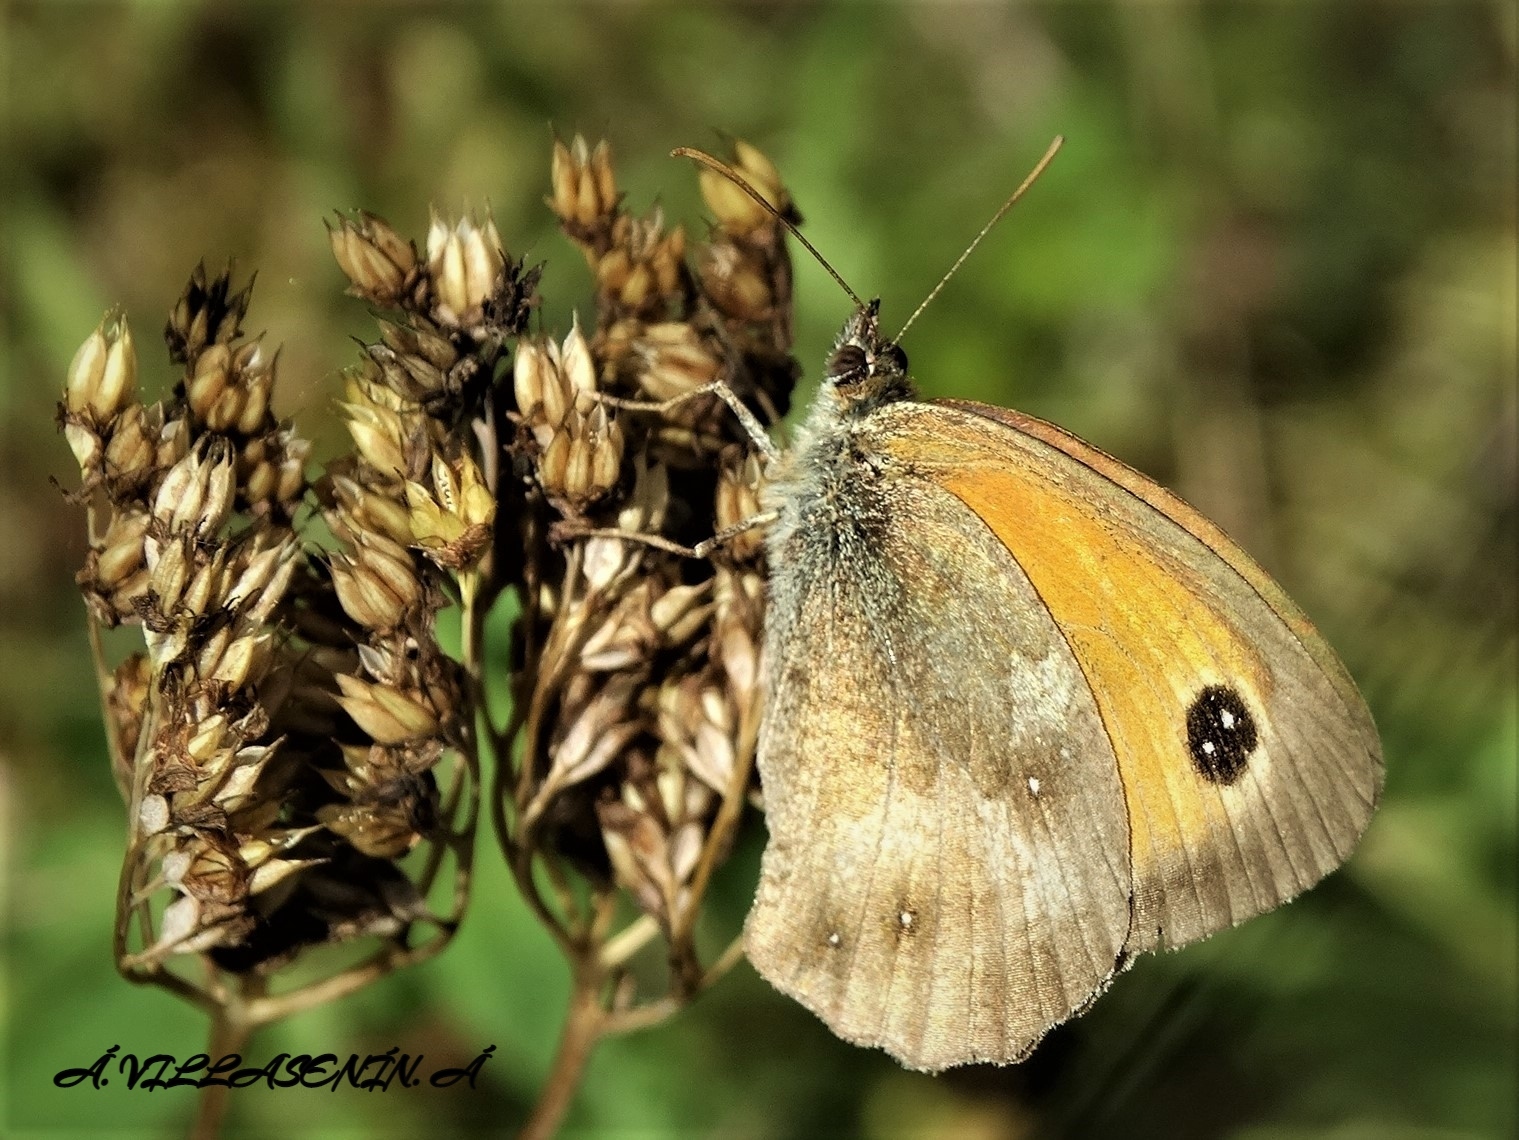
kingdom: Animalia
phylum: Arthropoda
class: Insecta
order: Lepidoptera
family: Nymphalidae
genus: Pyronia
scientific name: Pyronia tithonus
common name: Gatekeeper
